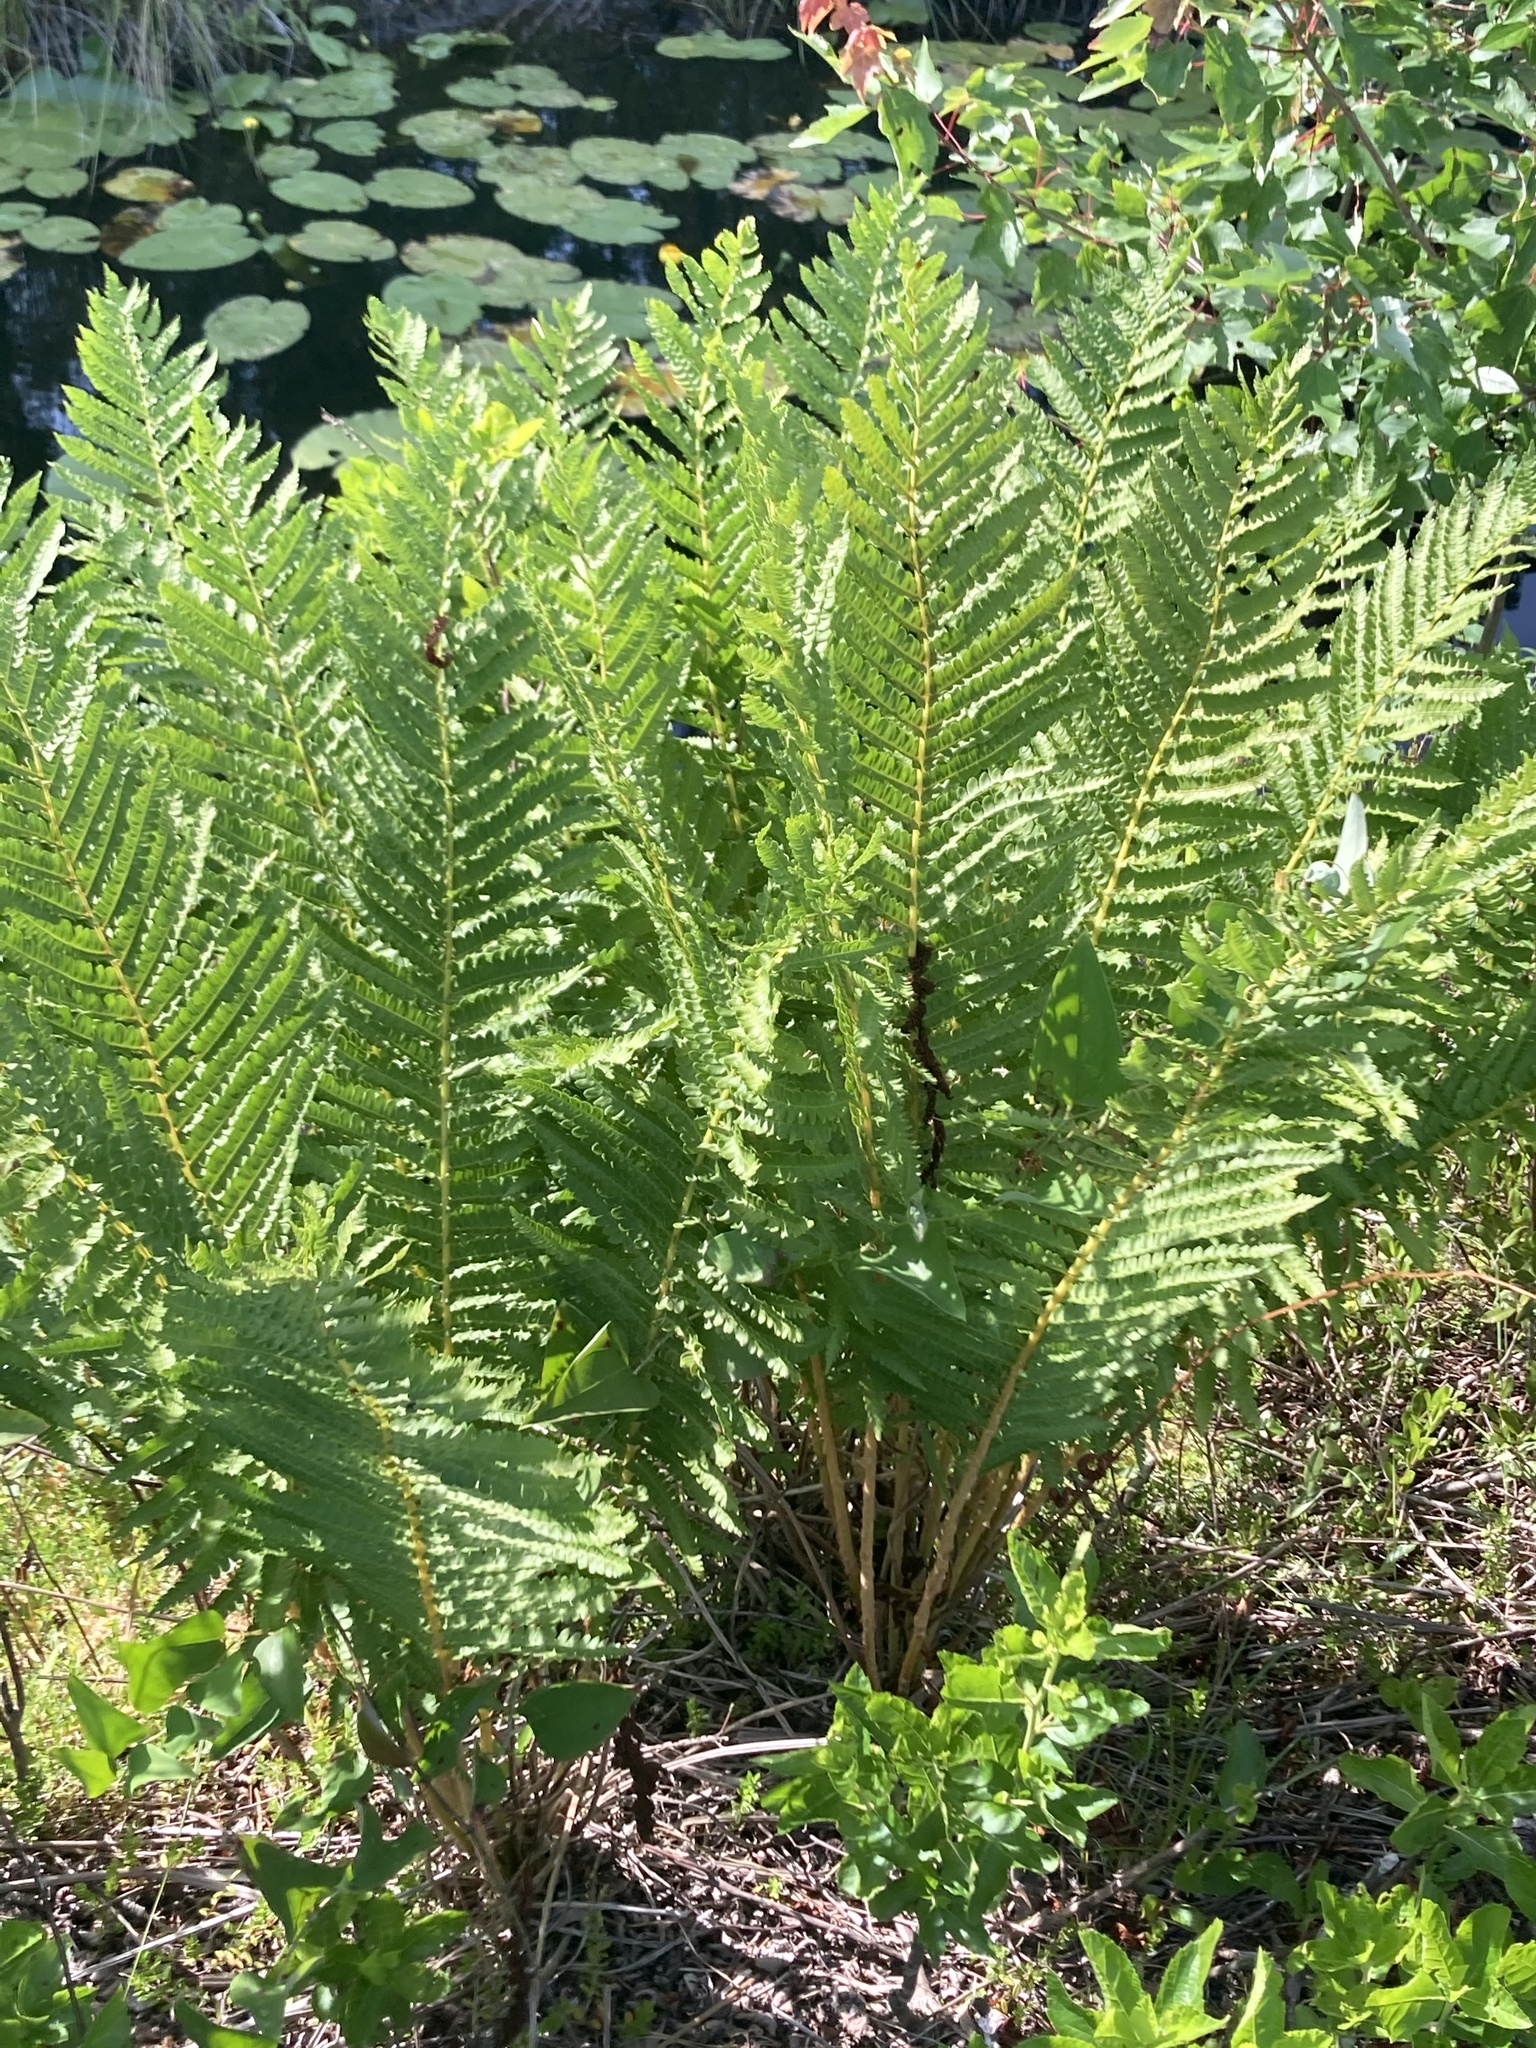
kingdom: Plantae
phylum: Tracheophyta
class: Polypodiopsida
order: Osmundales
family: Osmundaceae
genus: Claytosmunda
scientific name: Claytosmunda claytoniana
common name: Clayton's fern
